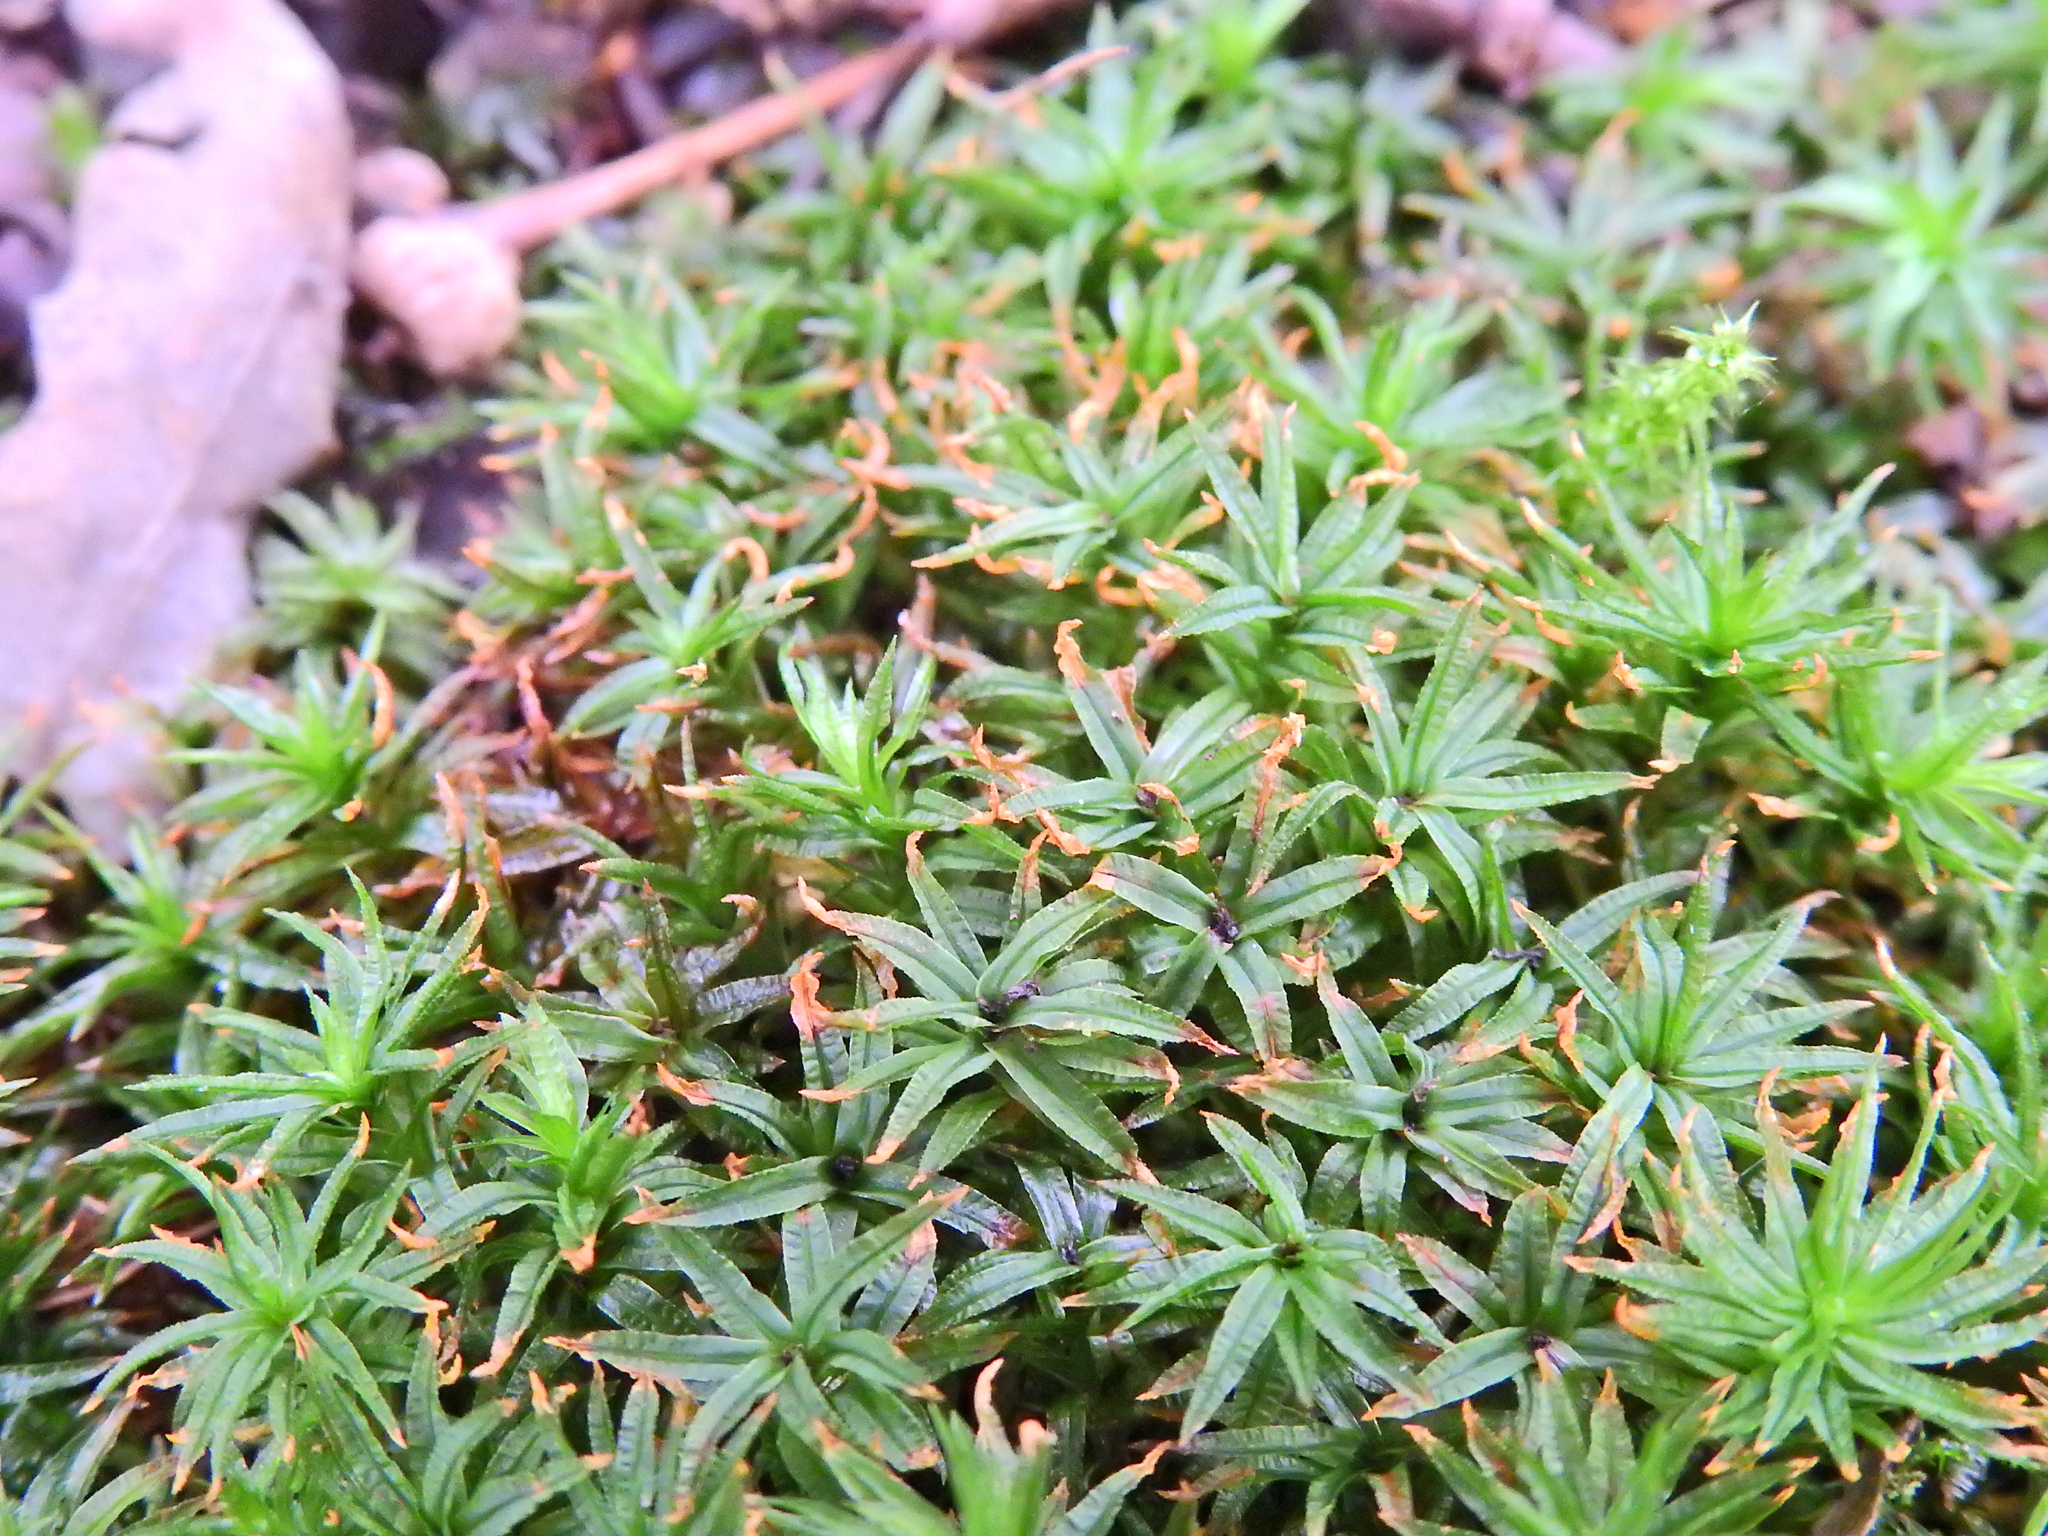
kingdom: Plantae
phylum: Bryophyta
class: Polytrichopsida
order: Polytrichales
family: Polytrichaceae
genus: Atrichum
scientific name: Atrichum undulatum
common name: Common smoothcap
